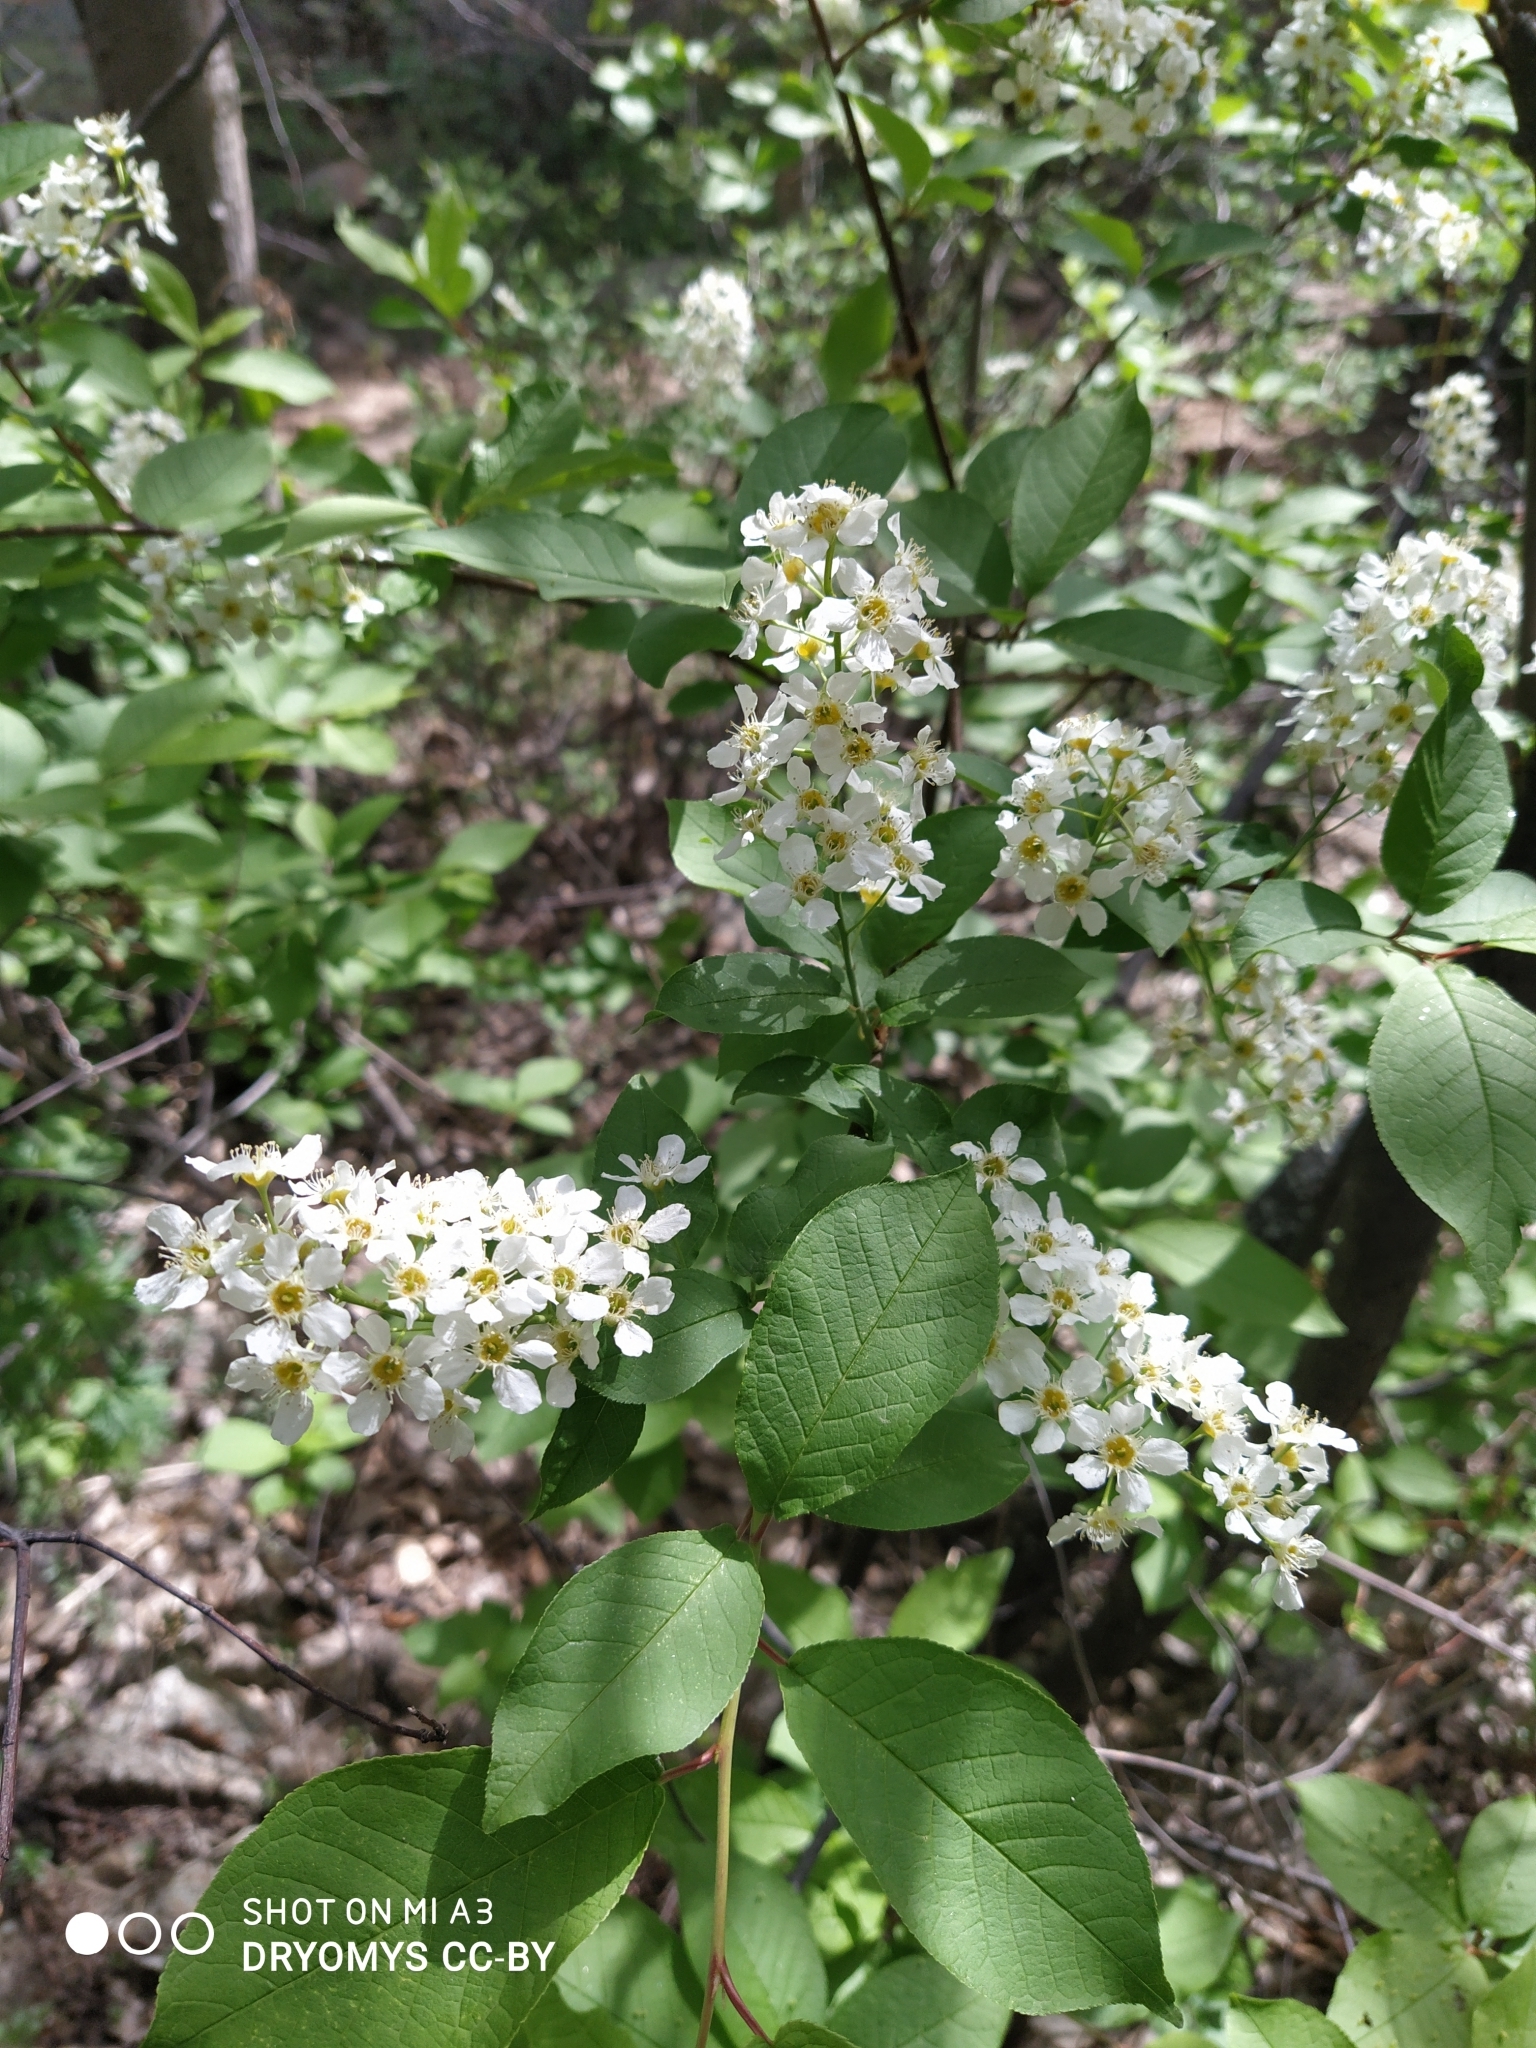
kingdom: Plantae
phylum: Tracheophyta
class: Magnoliopsida
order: Rosales
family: Rosaceae
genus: Prunus
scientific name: Prunus padus
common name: Bird cherry
